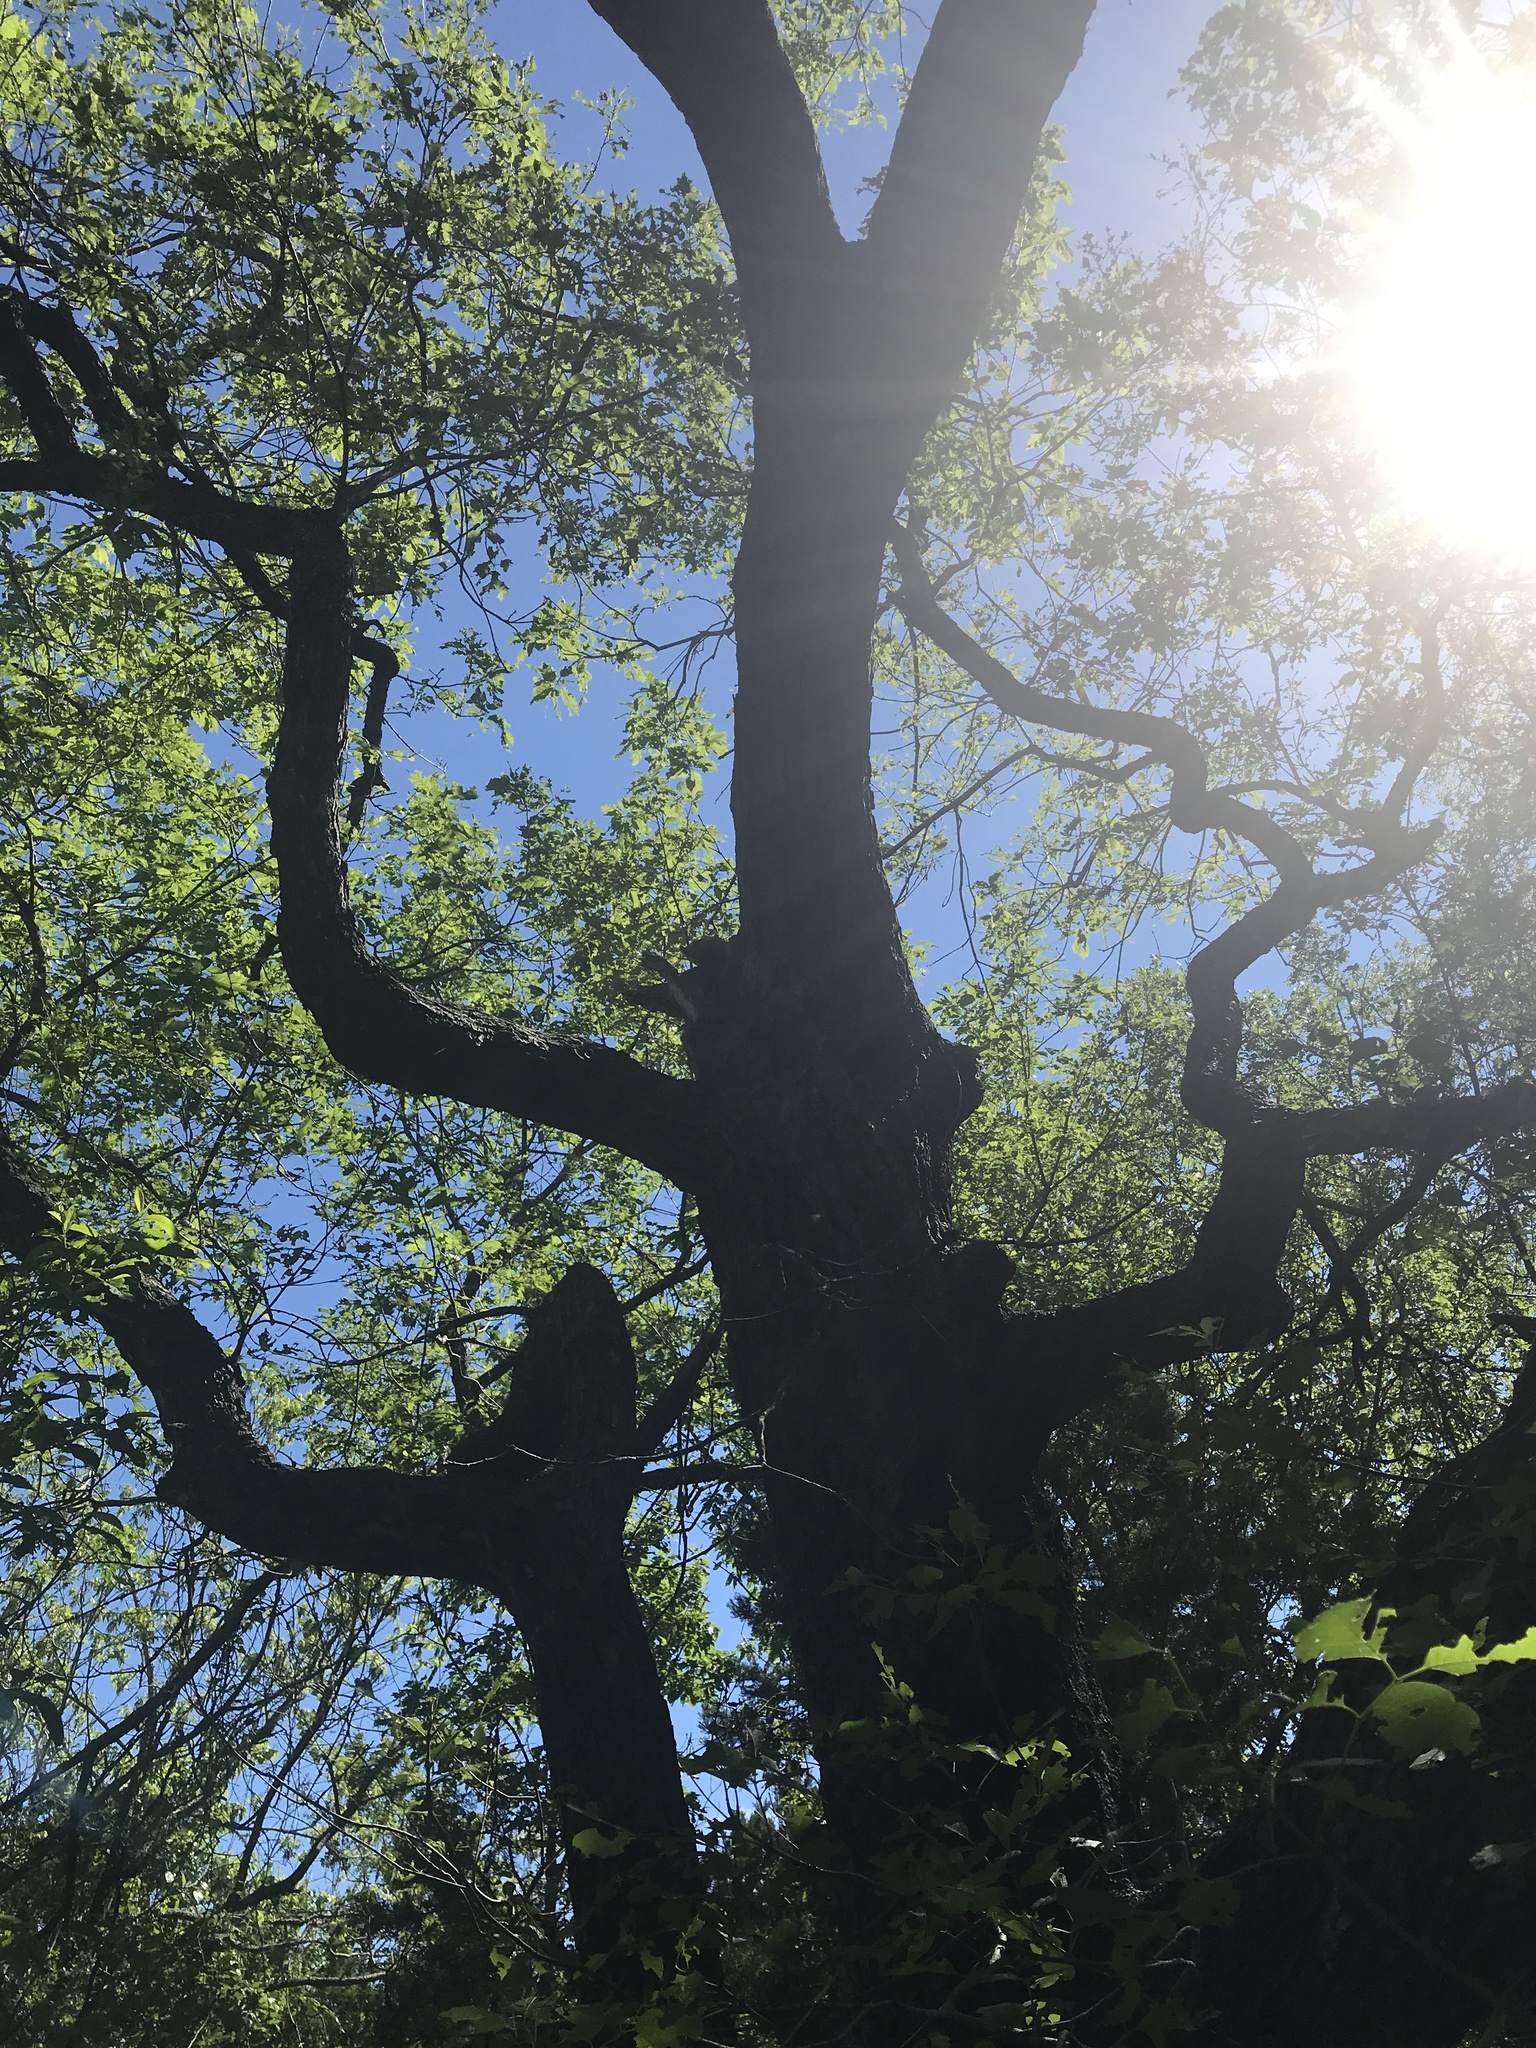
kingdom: Plantae
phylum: Tracheophyta
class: Magnoliopsida
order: Fagales
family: Fagaceae
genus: Quercus
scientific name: Quercus muehlenbergii
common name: Chinkapin oak
